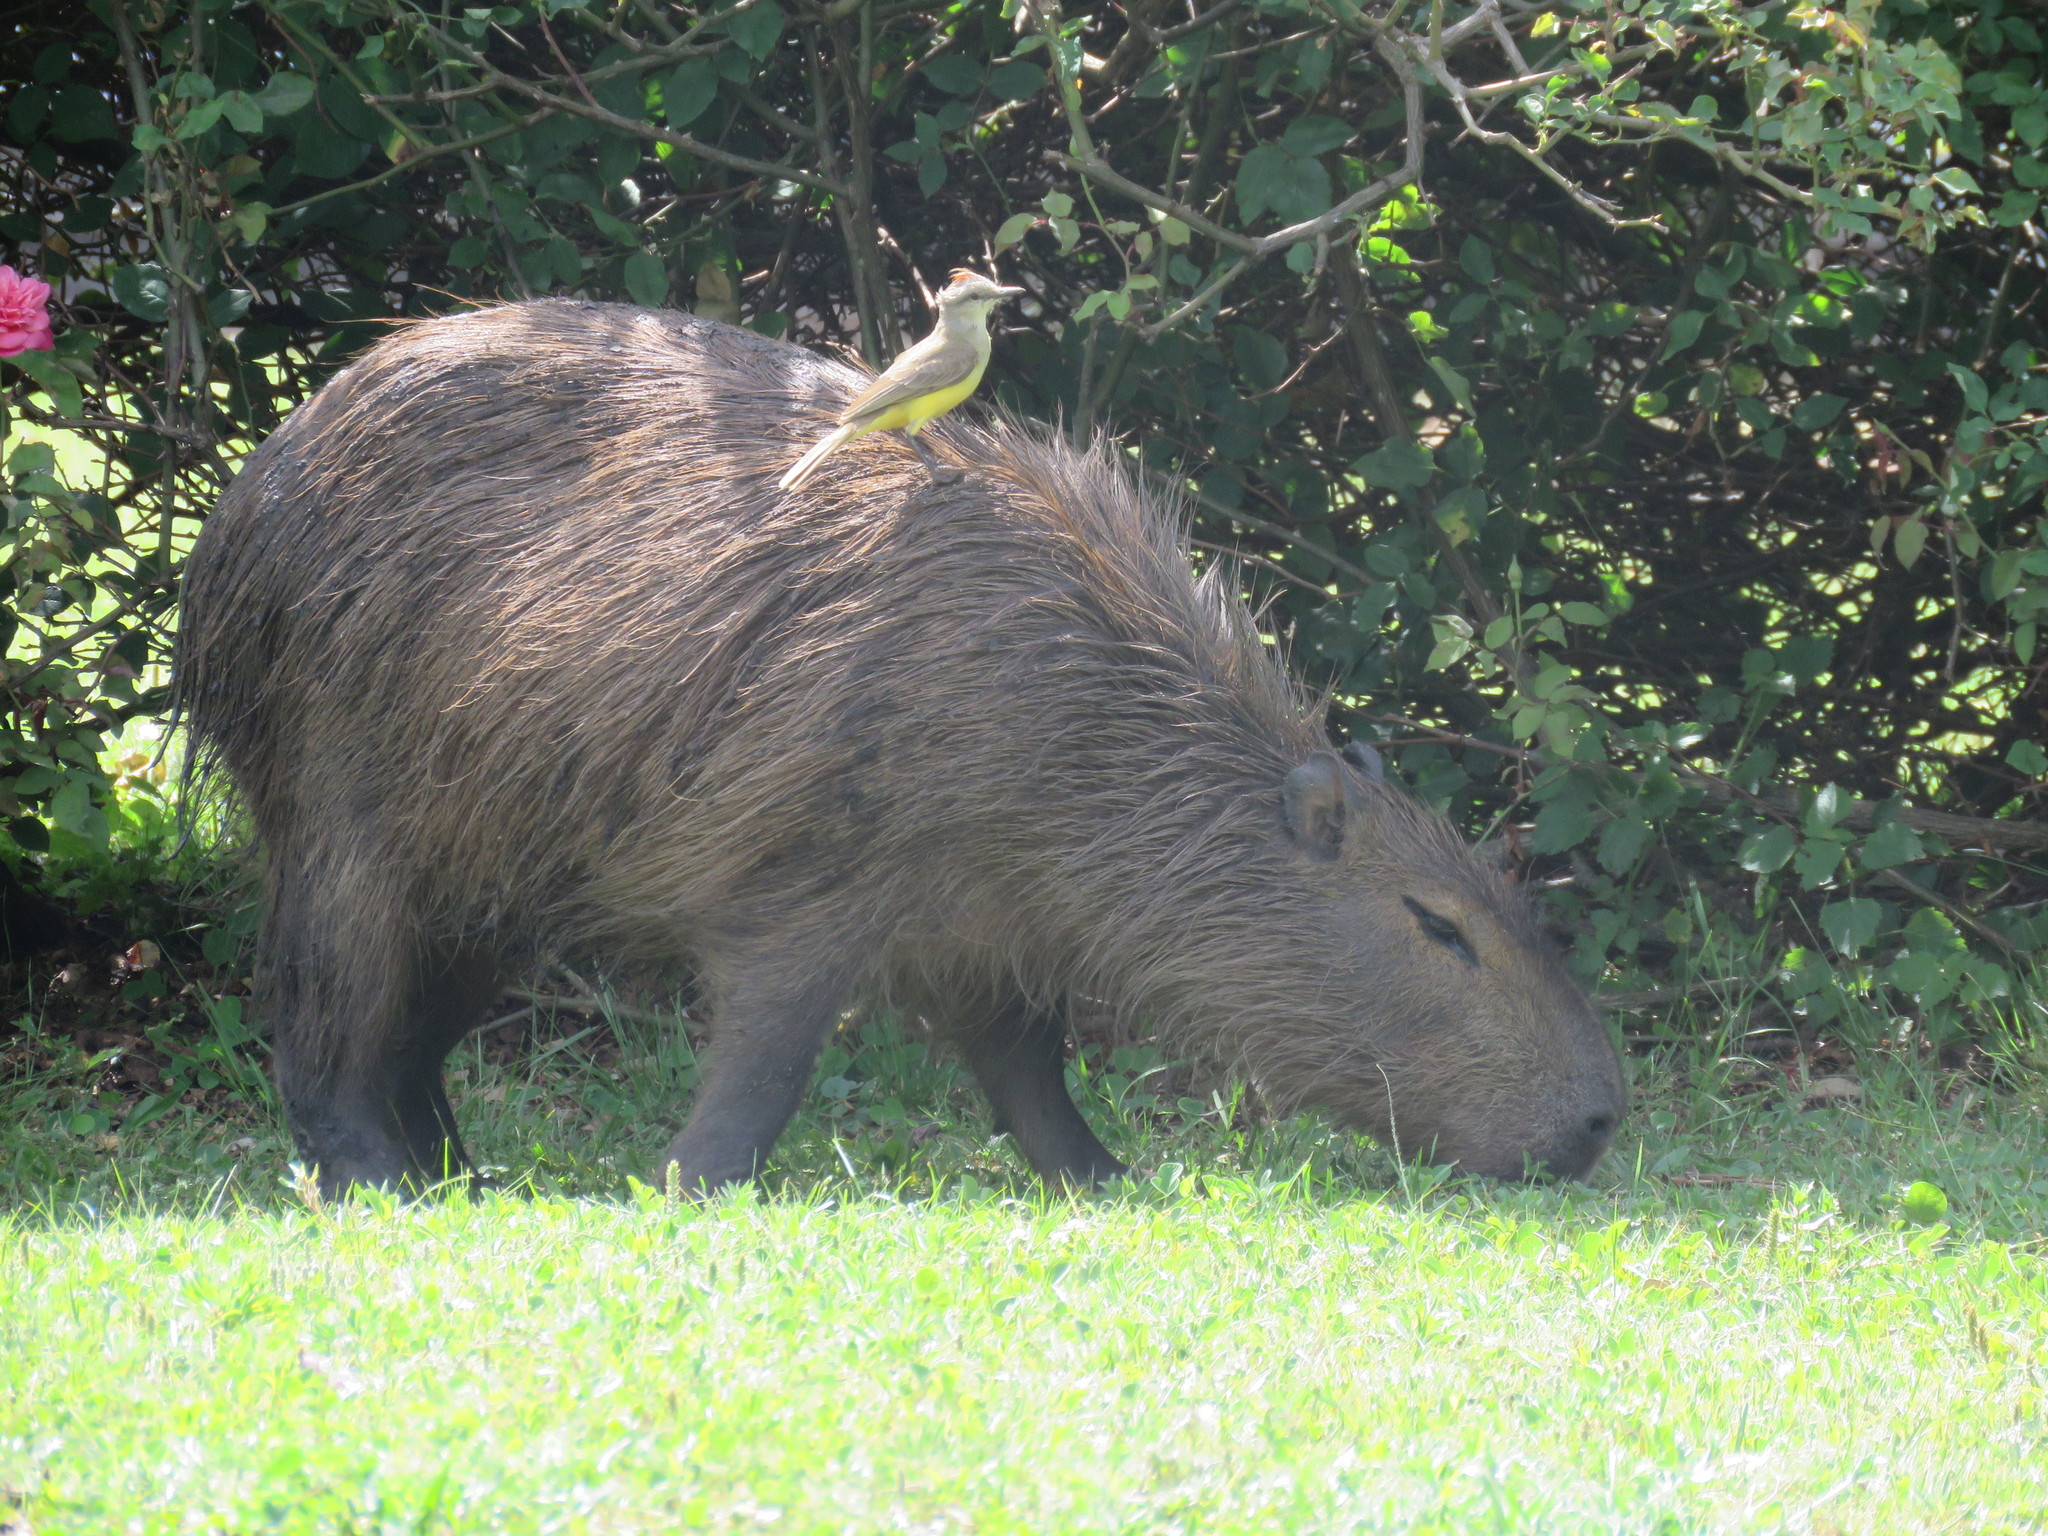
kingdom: Animalia
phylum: Chordata
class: Aves
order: Passeriformes
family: Tyrannidae
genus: Machetornis
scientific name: Machetornis rixosa
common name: Cattle tyrant
